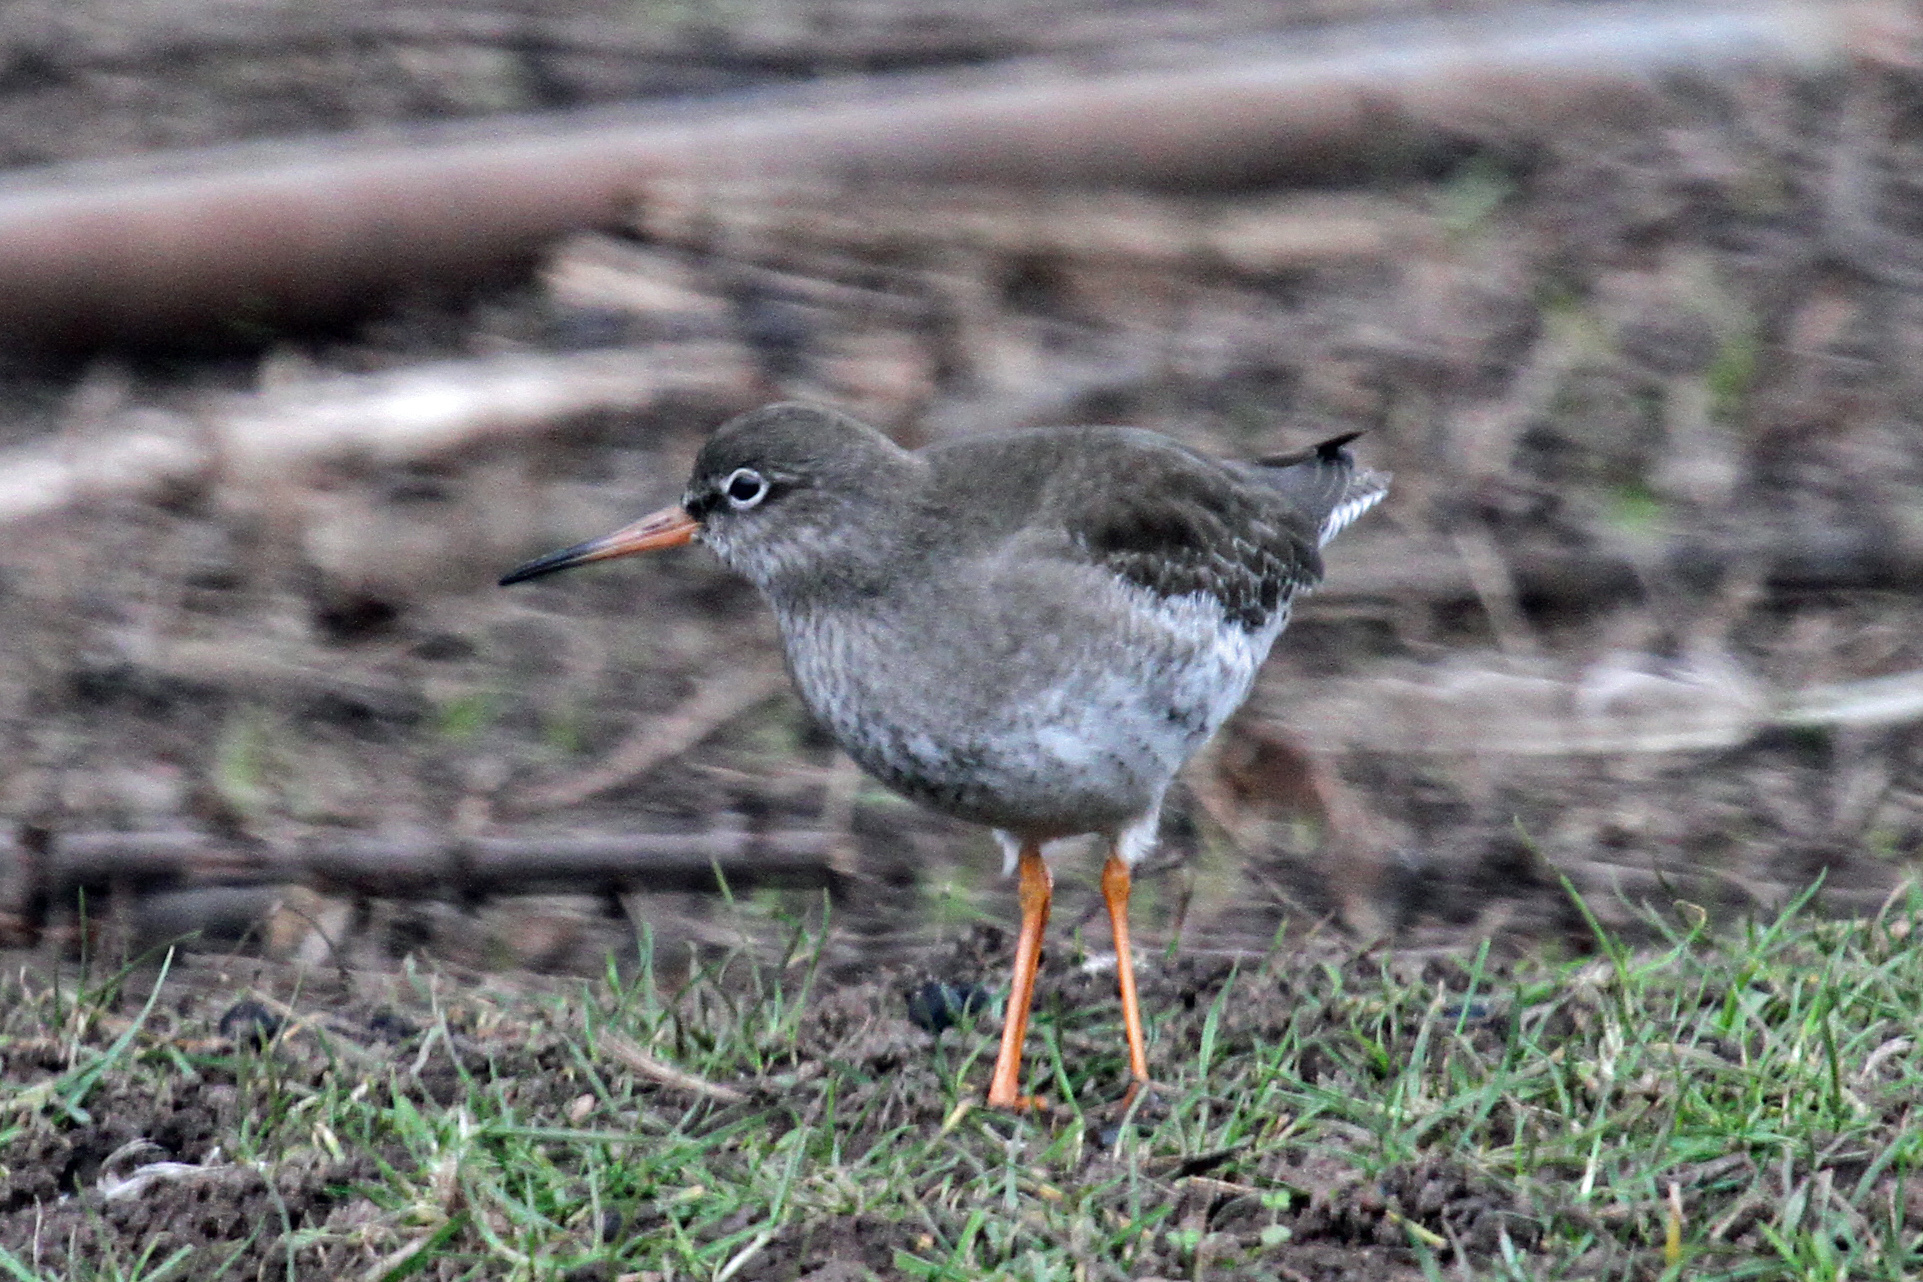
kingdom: Animalia
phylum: Chordata
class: Aves
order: Charadriiformes
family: Scolopacidae
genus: Tringa
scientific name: Tringa totanus
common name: Common redshank
